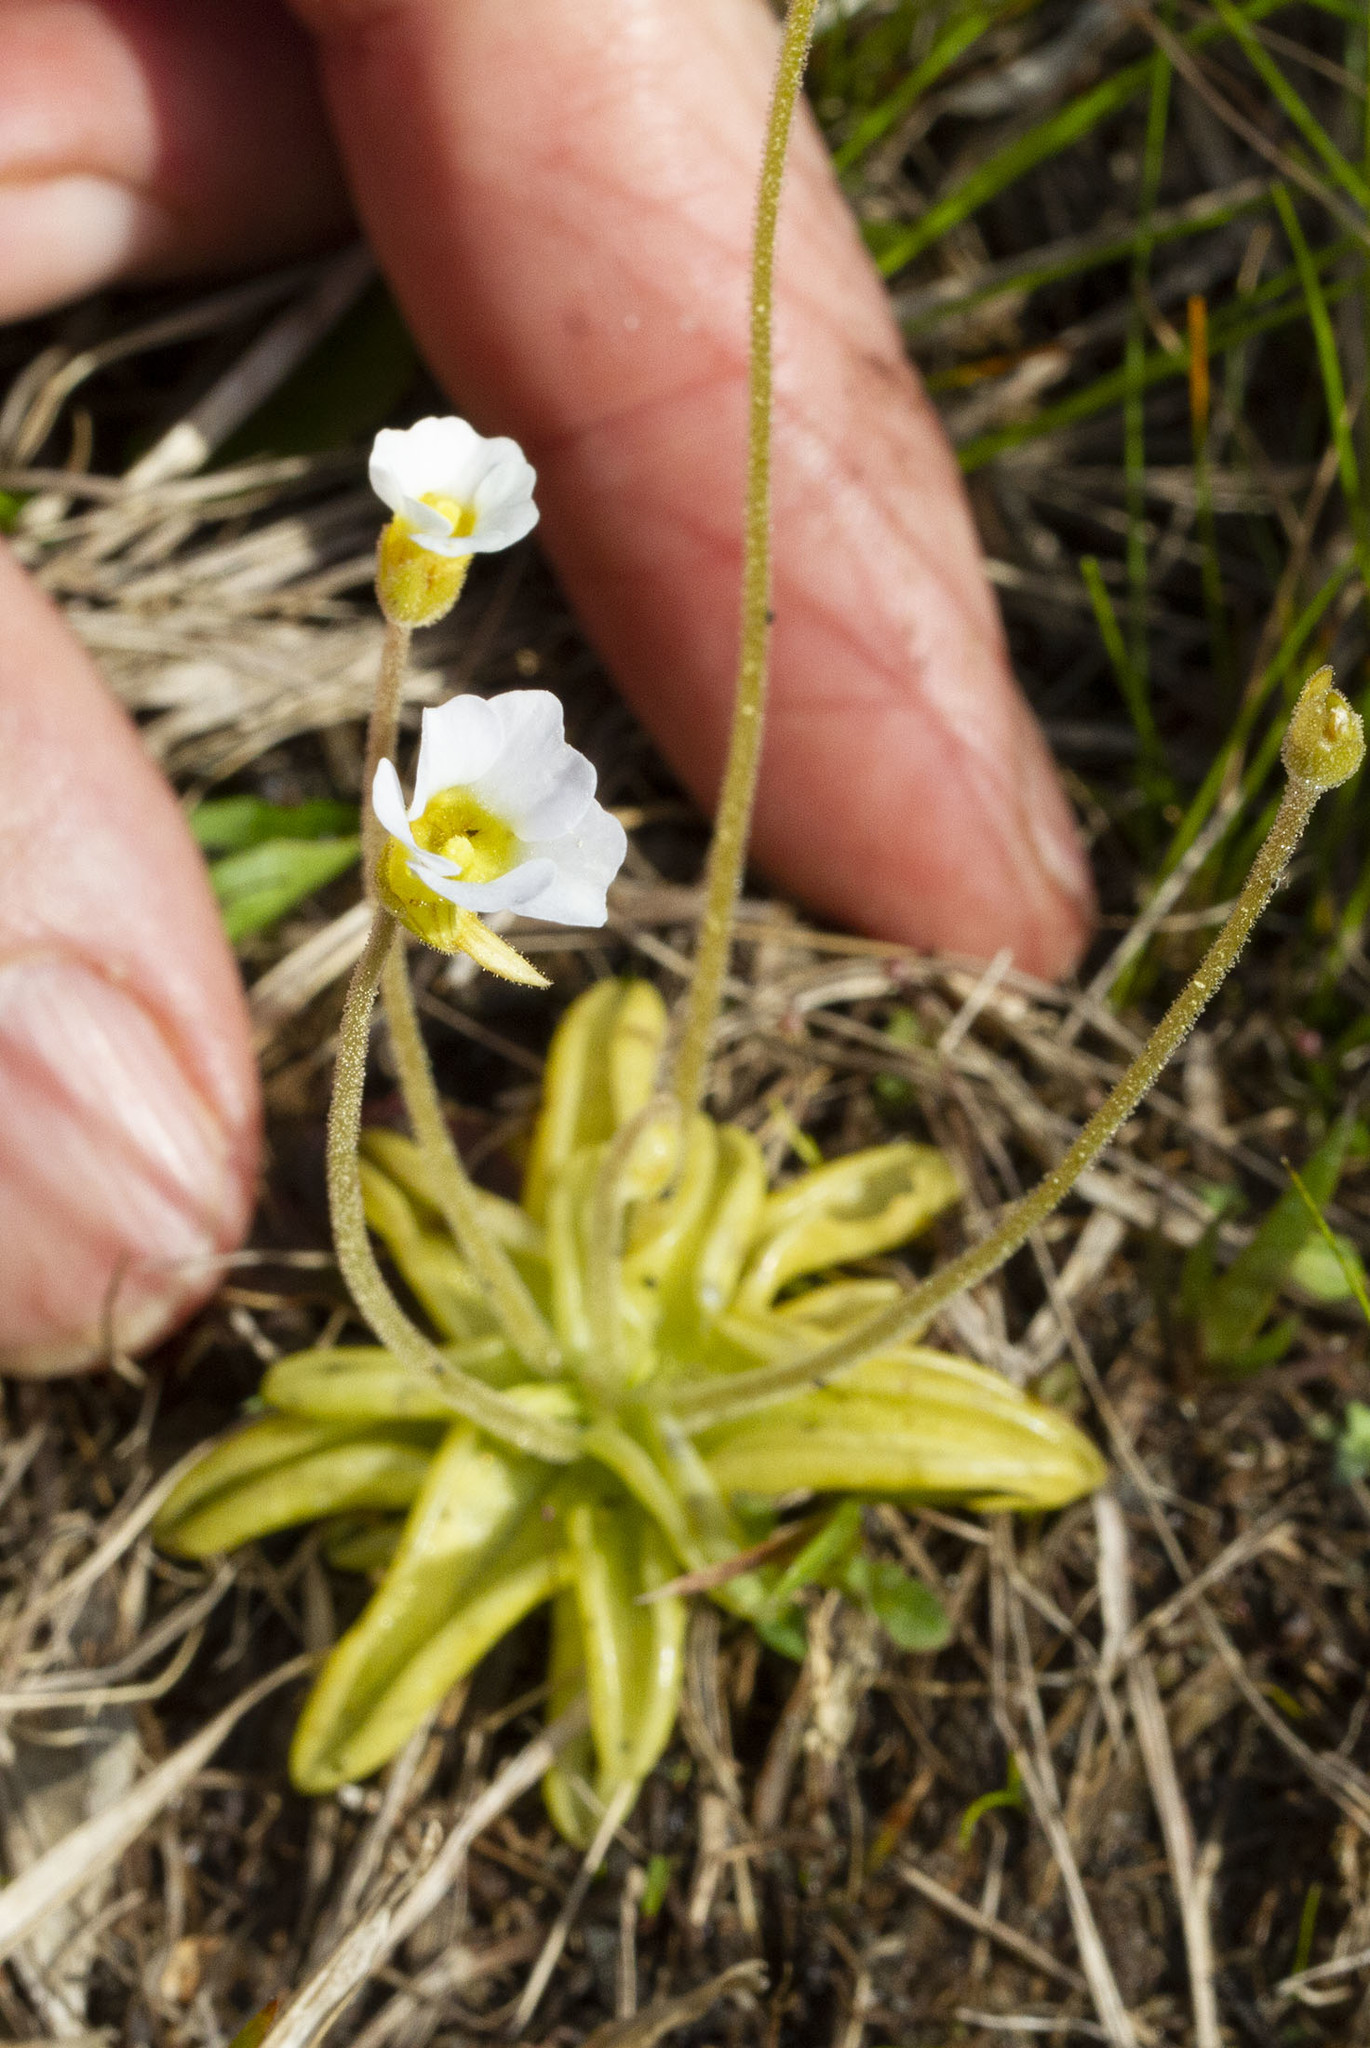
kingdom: Plantae
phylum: Tracheophyta
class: Magnoliopsida
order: Lamiales
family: Lentibulariaceae
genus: Pinguicula
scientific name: Pinguicula pumila
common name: Small butterwort
